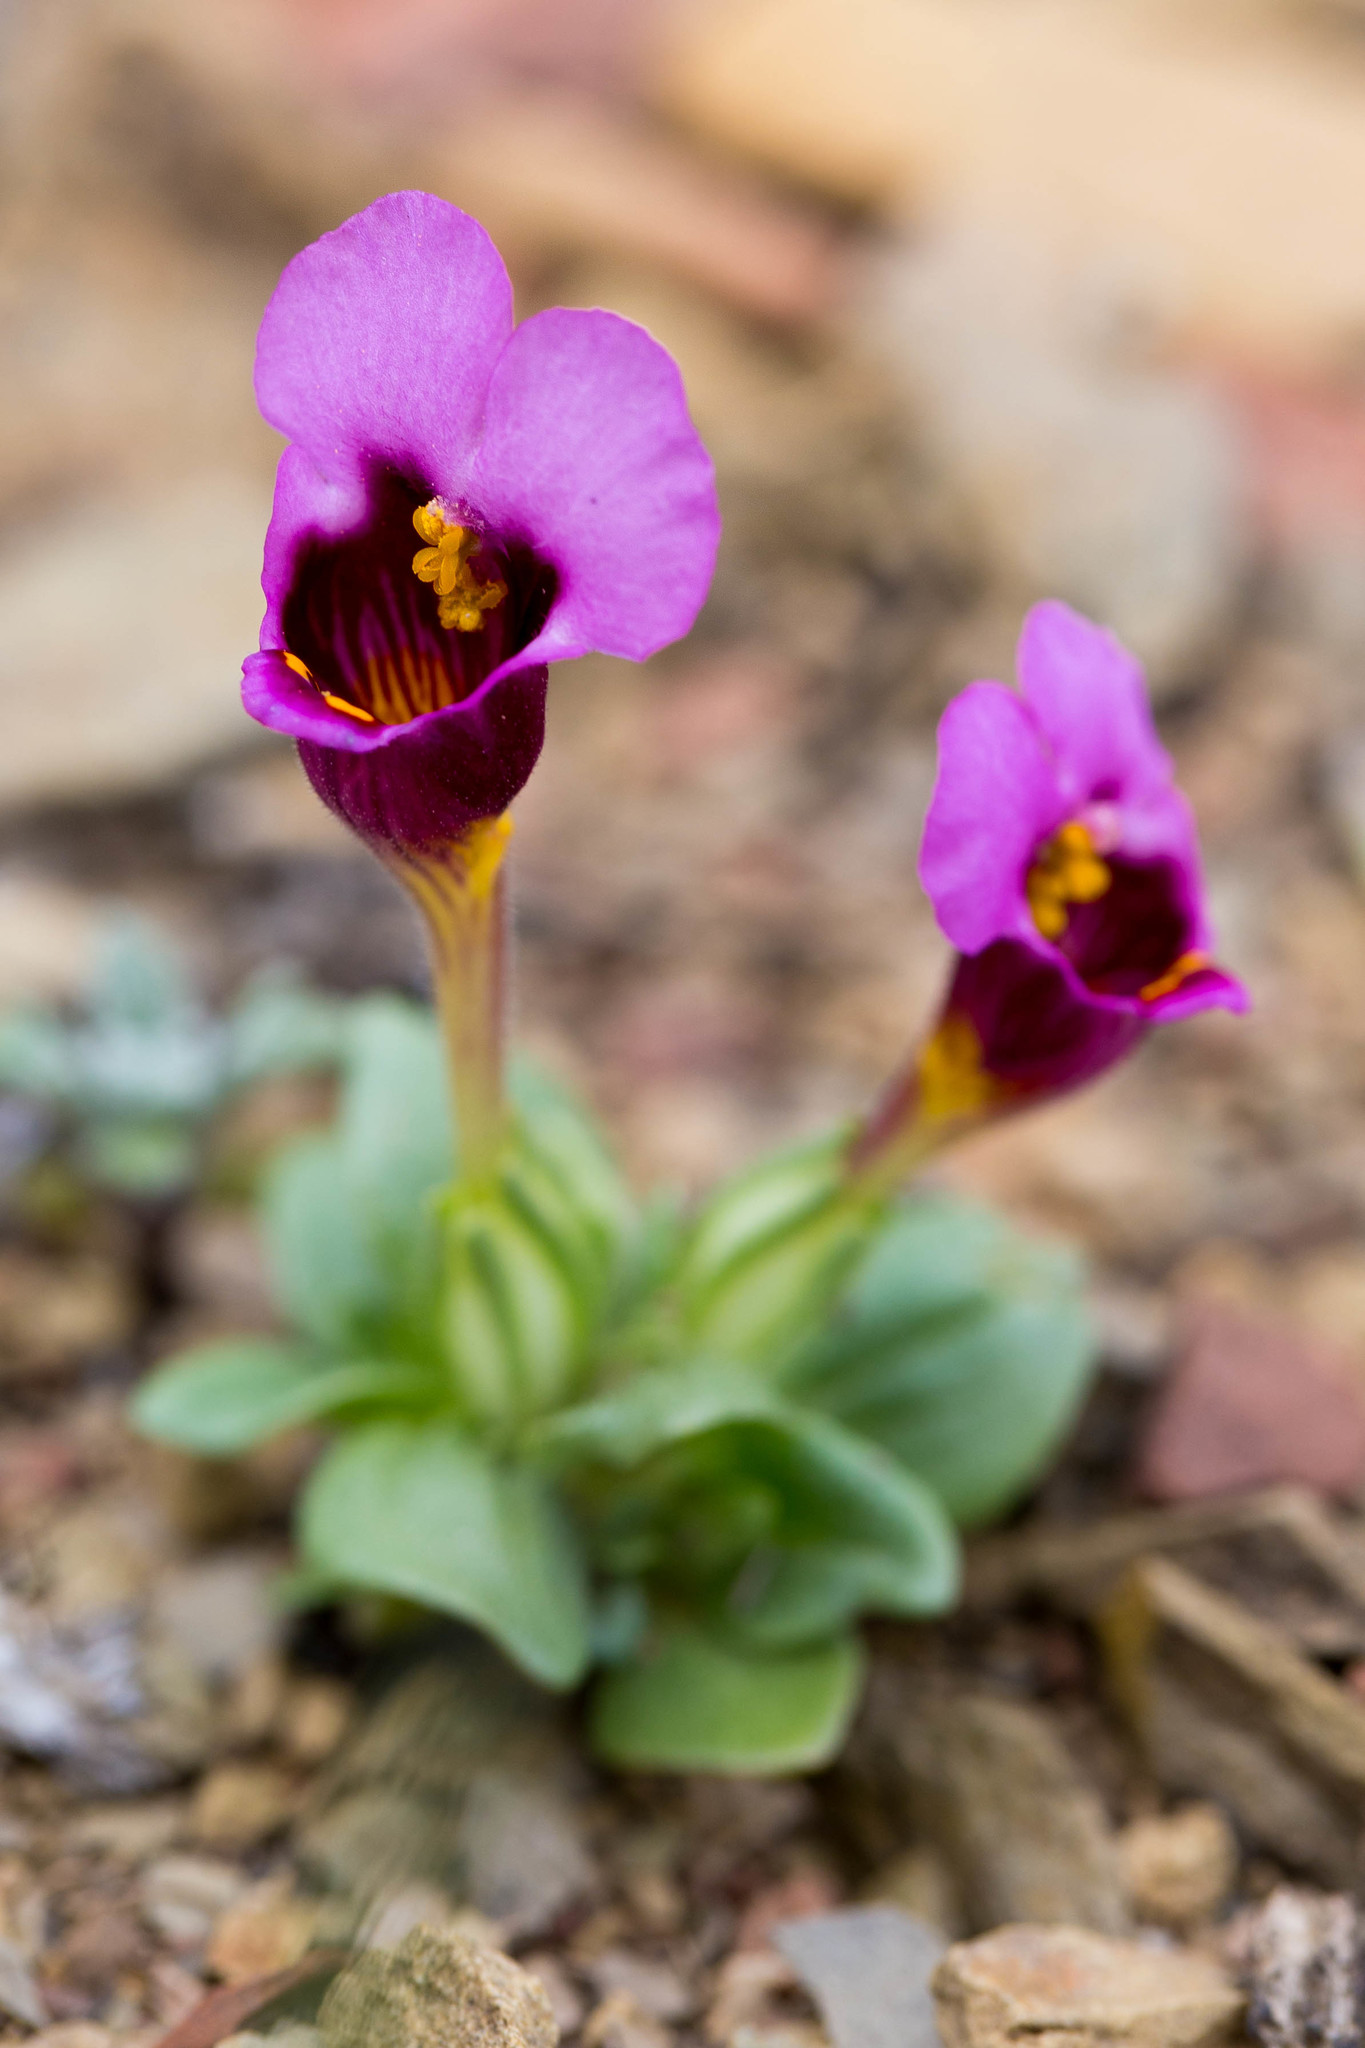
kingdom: Plantae
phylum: Tracheophyta
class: Magnoliopsida
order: Lamiales
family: Phrymaceae
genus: Diplacus
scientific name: Diplacus douglasii
